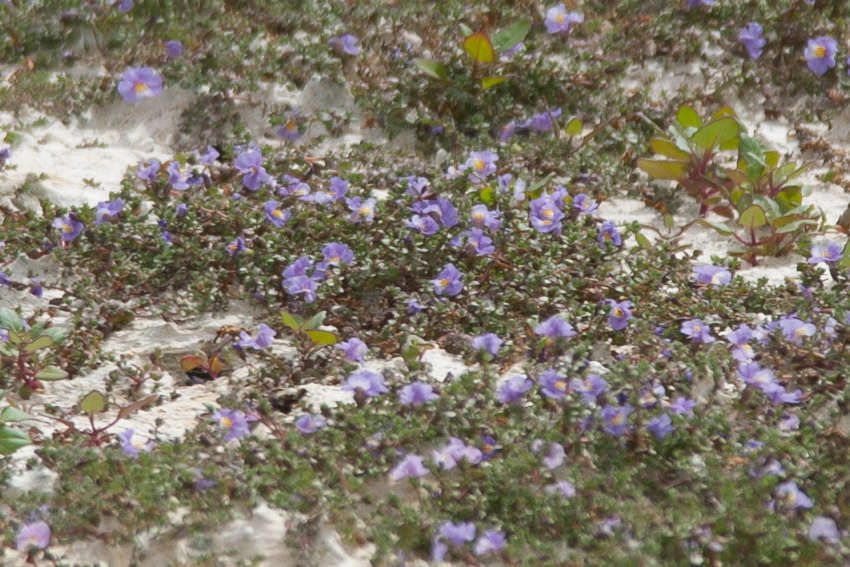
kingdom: Plantae
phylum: Tracheophyta
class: Magnoliopsida
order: Lamiales
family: Phrymaceae
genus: Thyridia
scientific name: Thyridia repens
